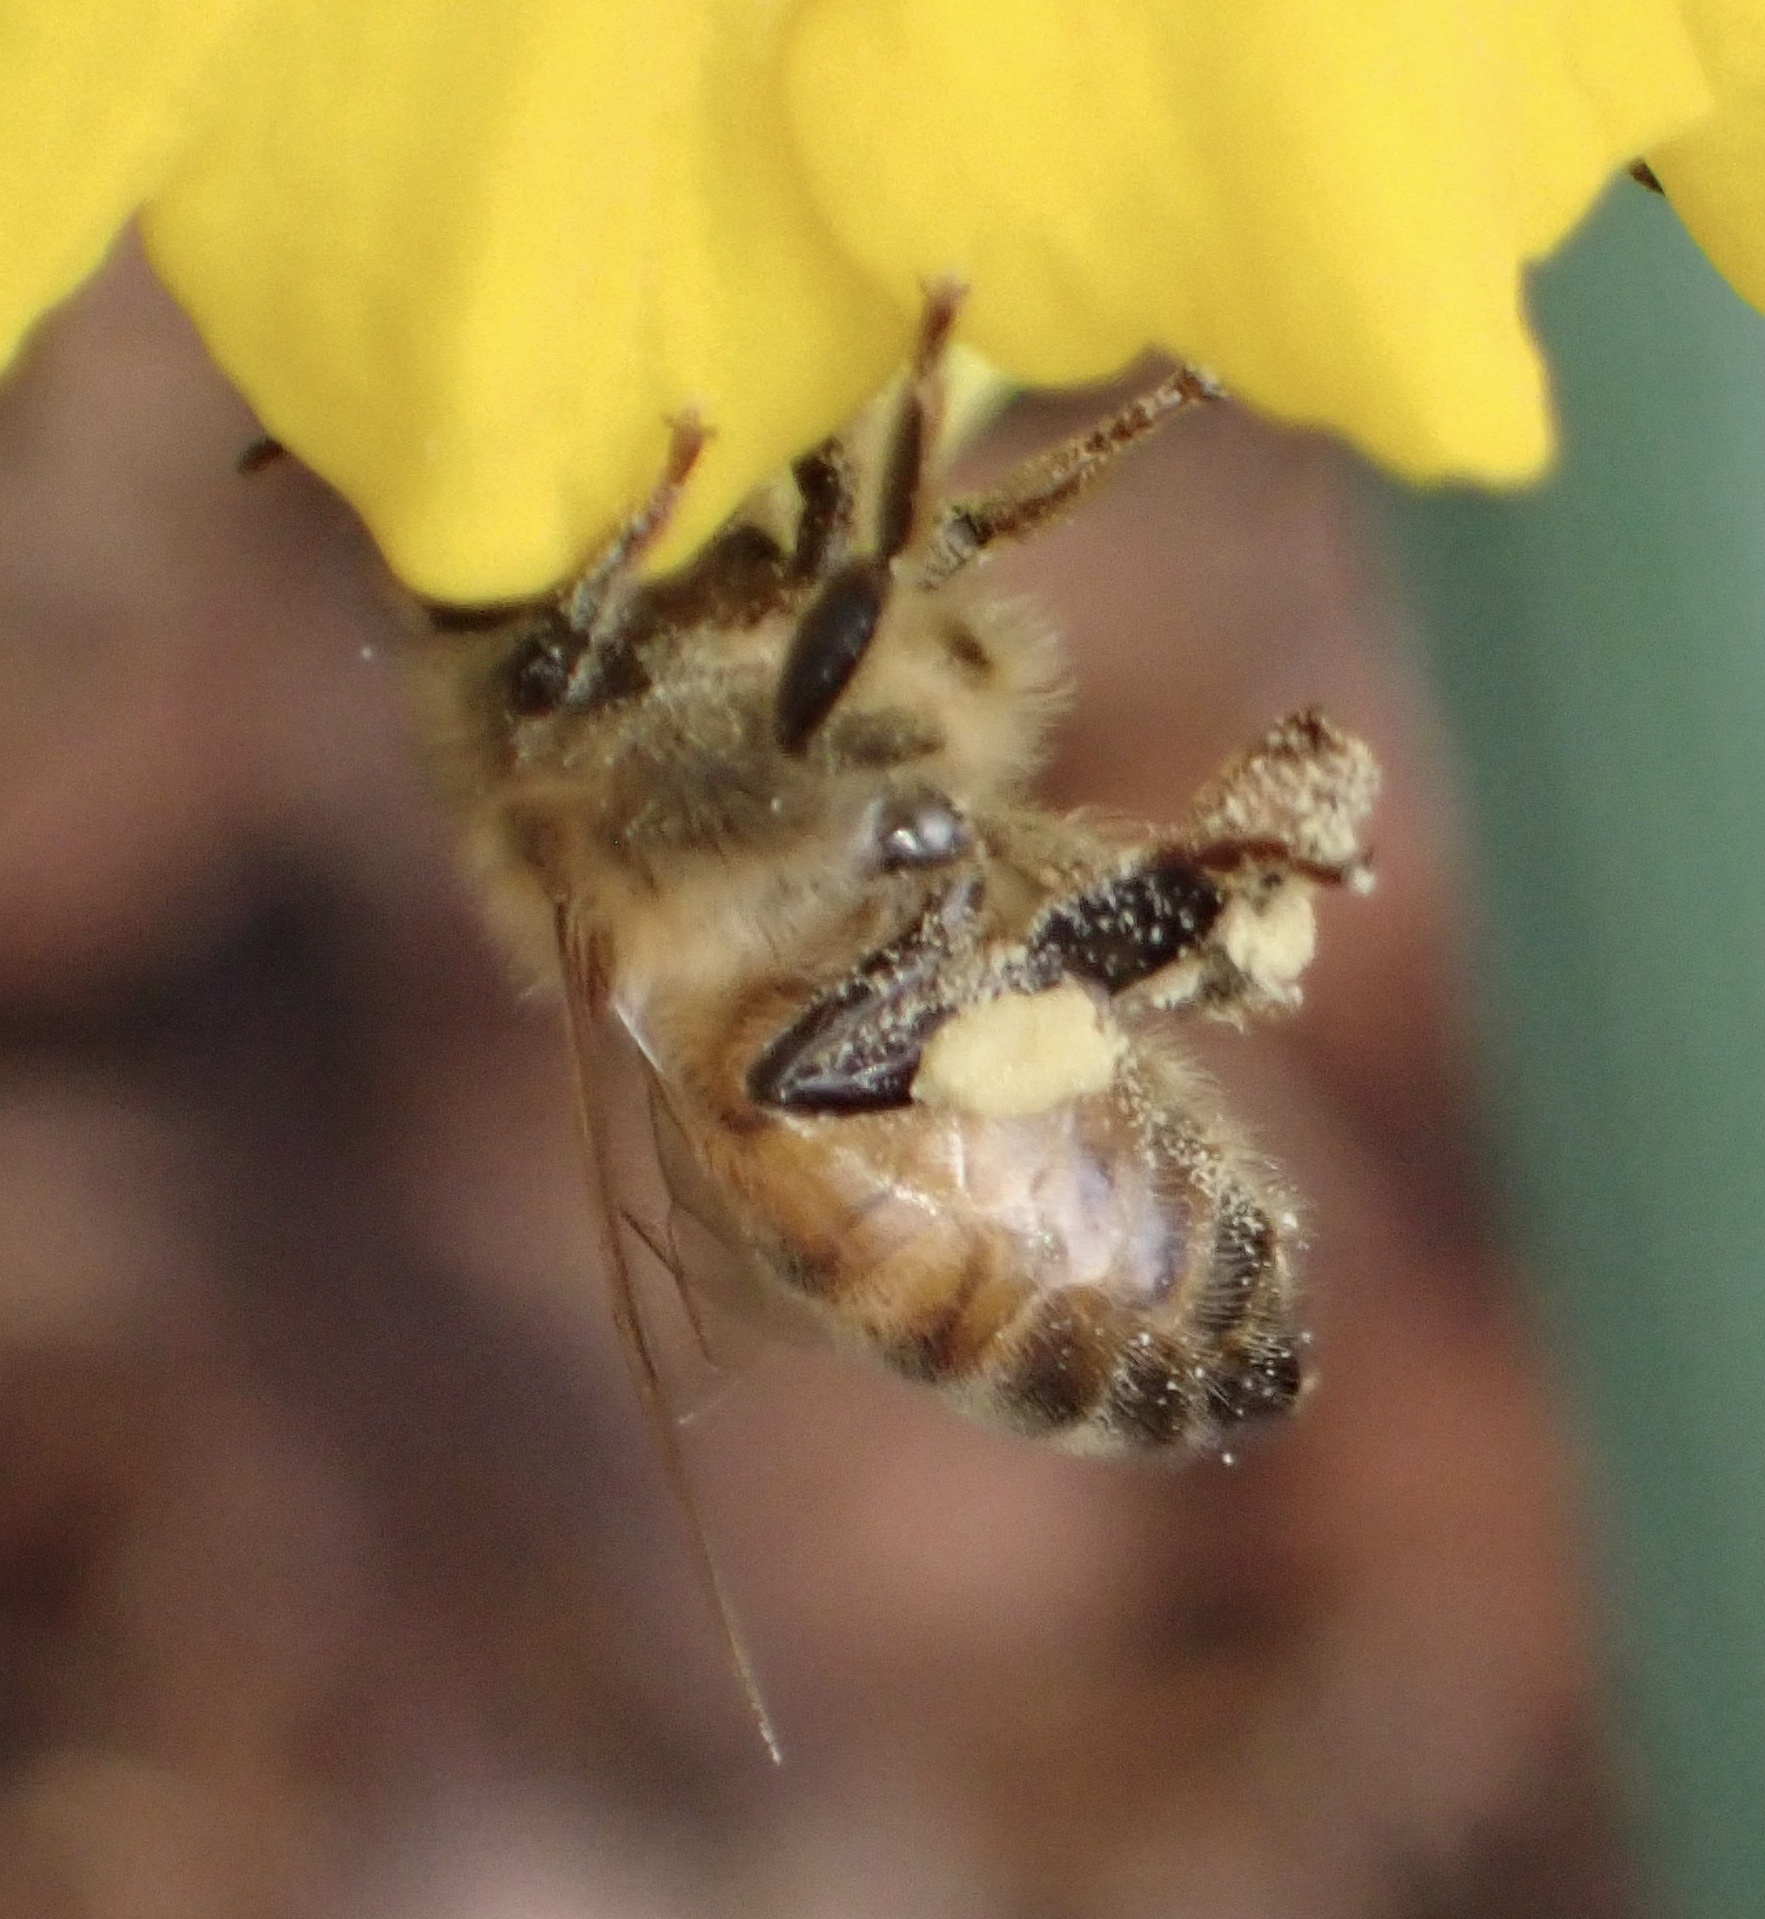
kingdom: Animalia
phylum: Arthropoda
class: Insecta
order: Hymenoptera
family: Apidae
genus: Apis
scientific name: Apis mellifera
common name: Honey bee
